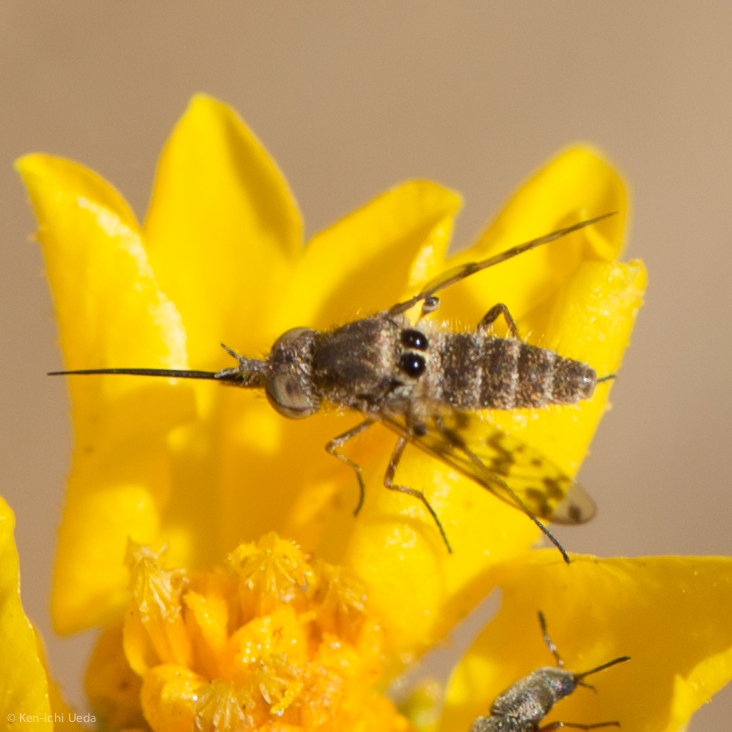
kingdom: Animalia
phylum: Arthropoda
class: Insecta
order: Diptera
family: Bombyliidae
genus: Geminaria
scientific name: Geminaria canalis
